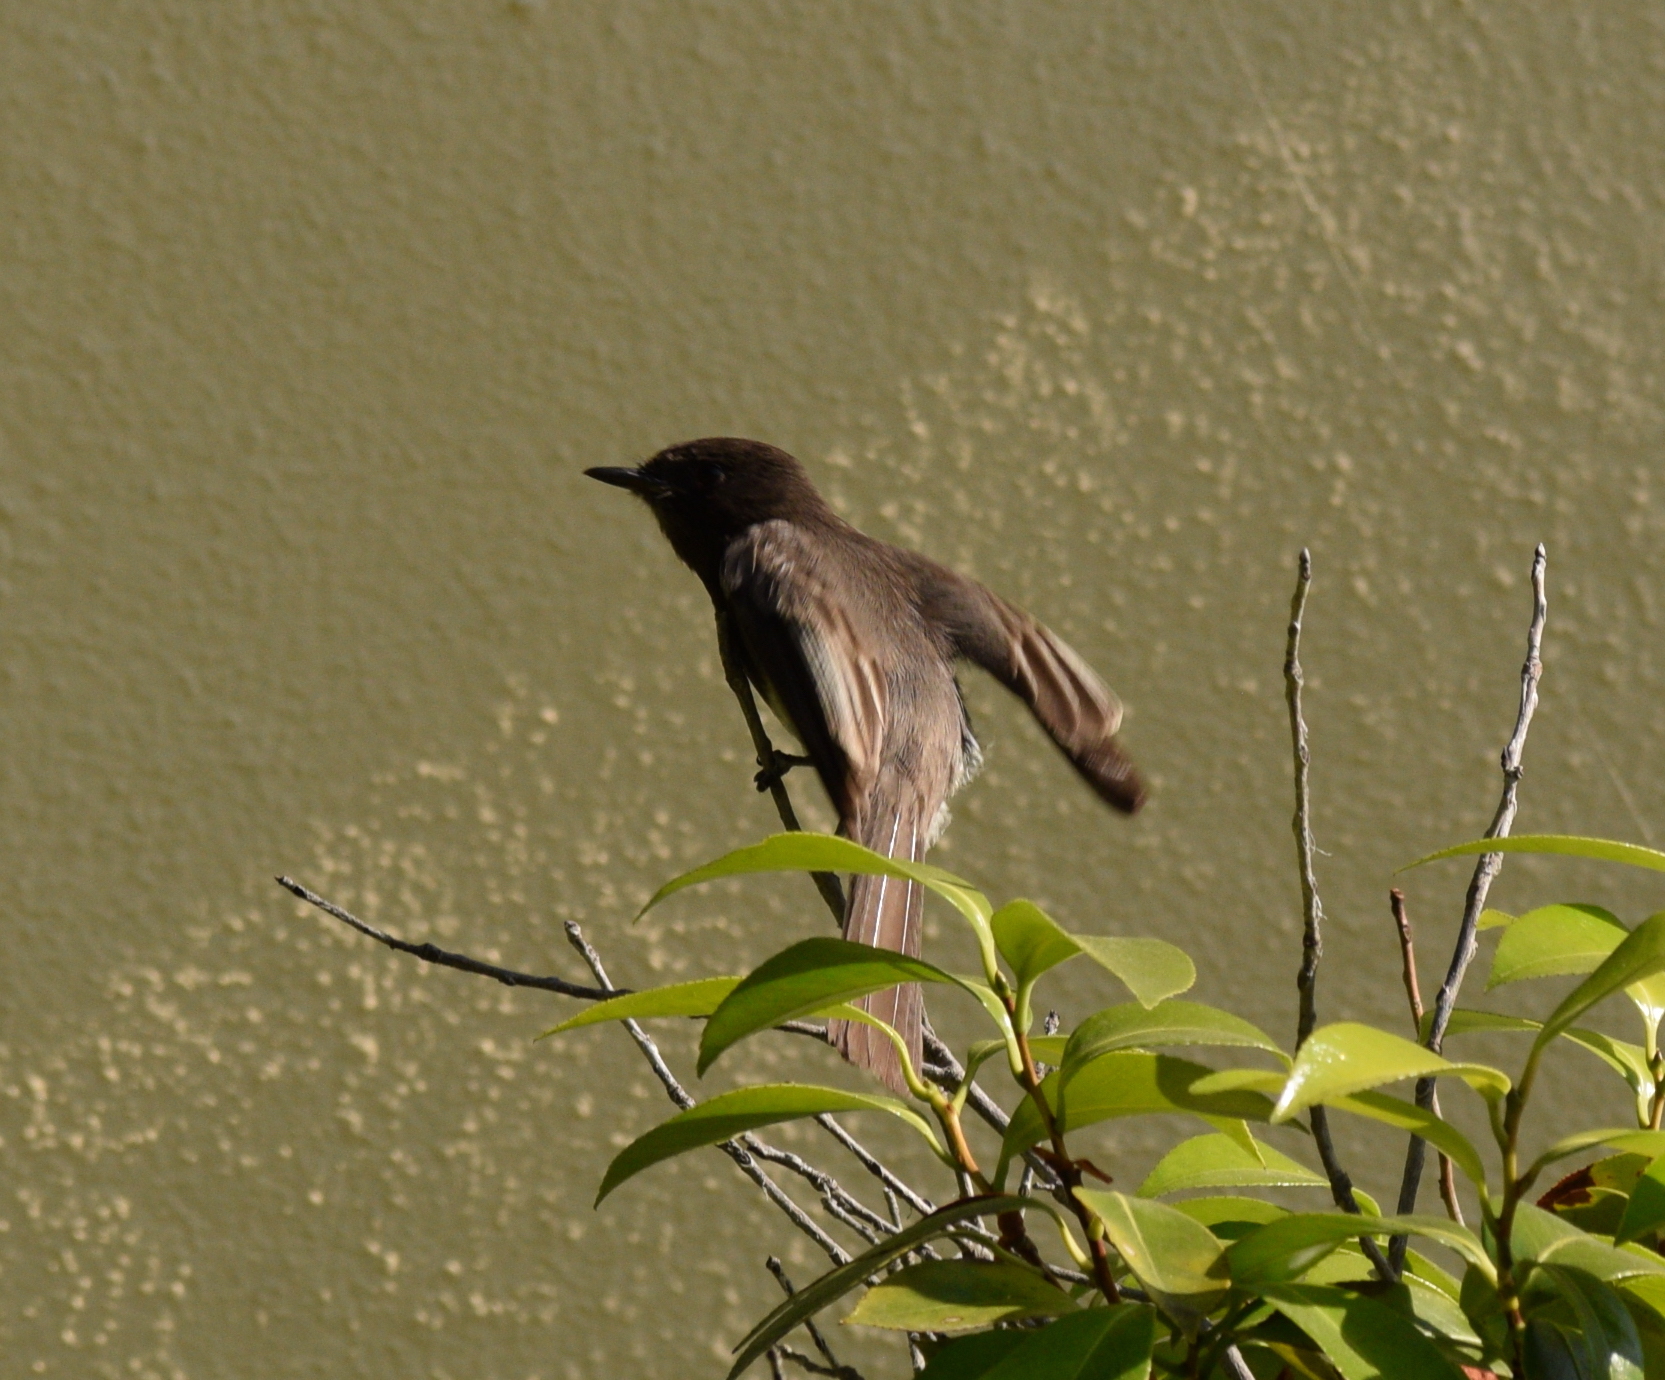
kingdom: Animalia
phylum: Chordata
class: Aves
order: Passeriformes
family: Tyrannidae
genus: Sayornis
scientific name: Sayornis nigricans
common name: Black phoebe
